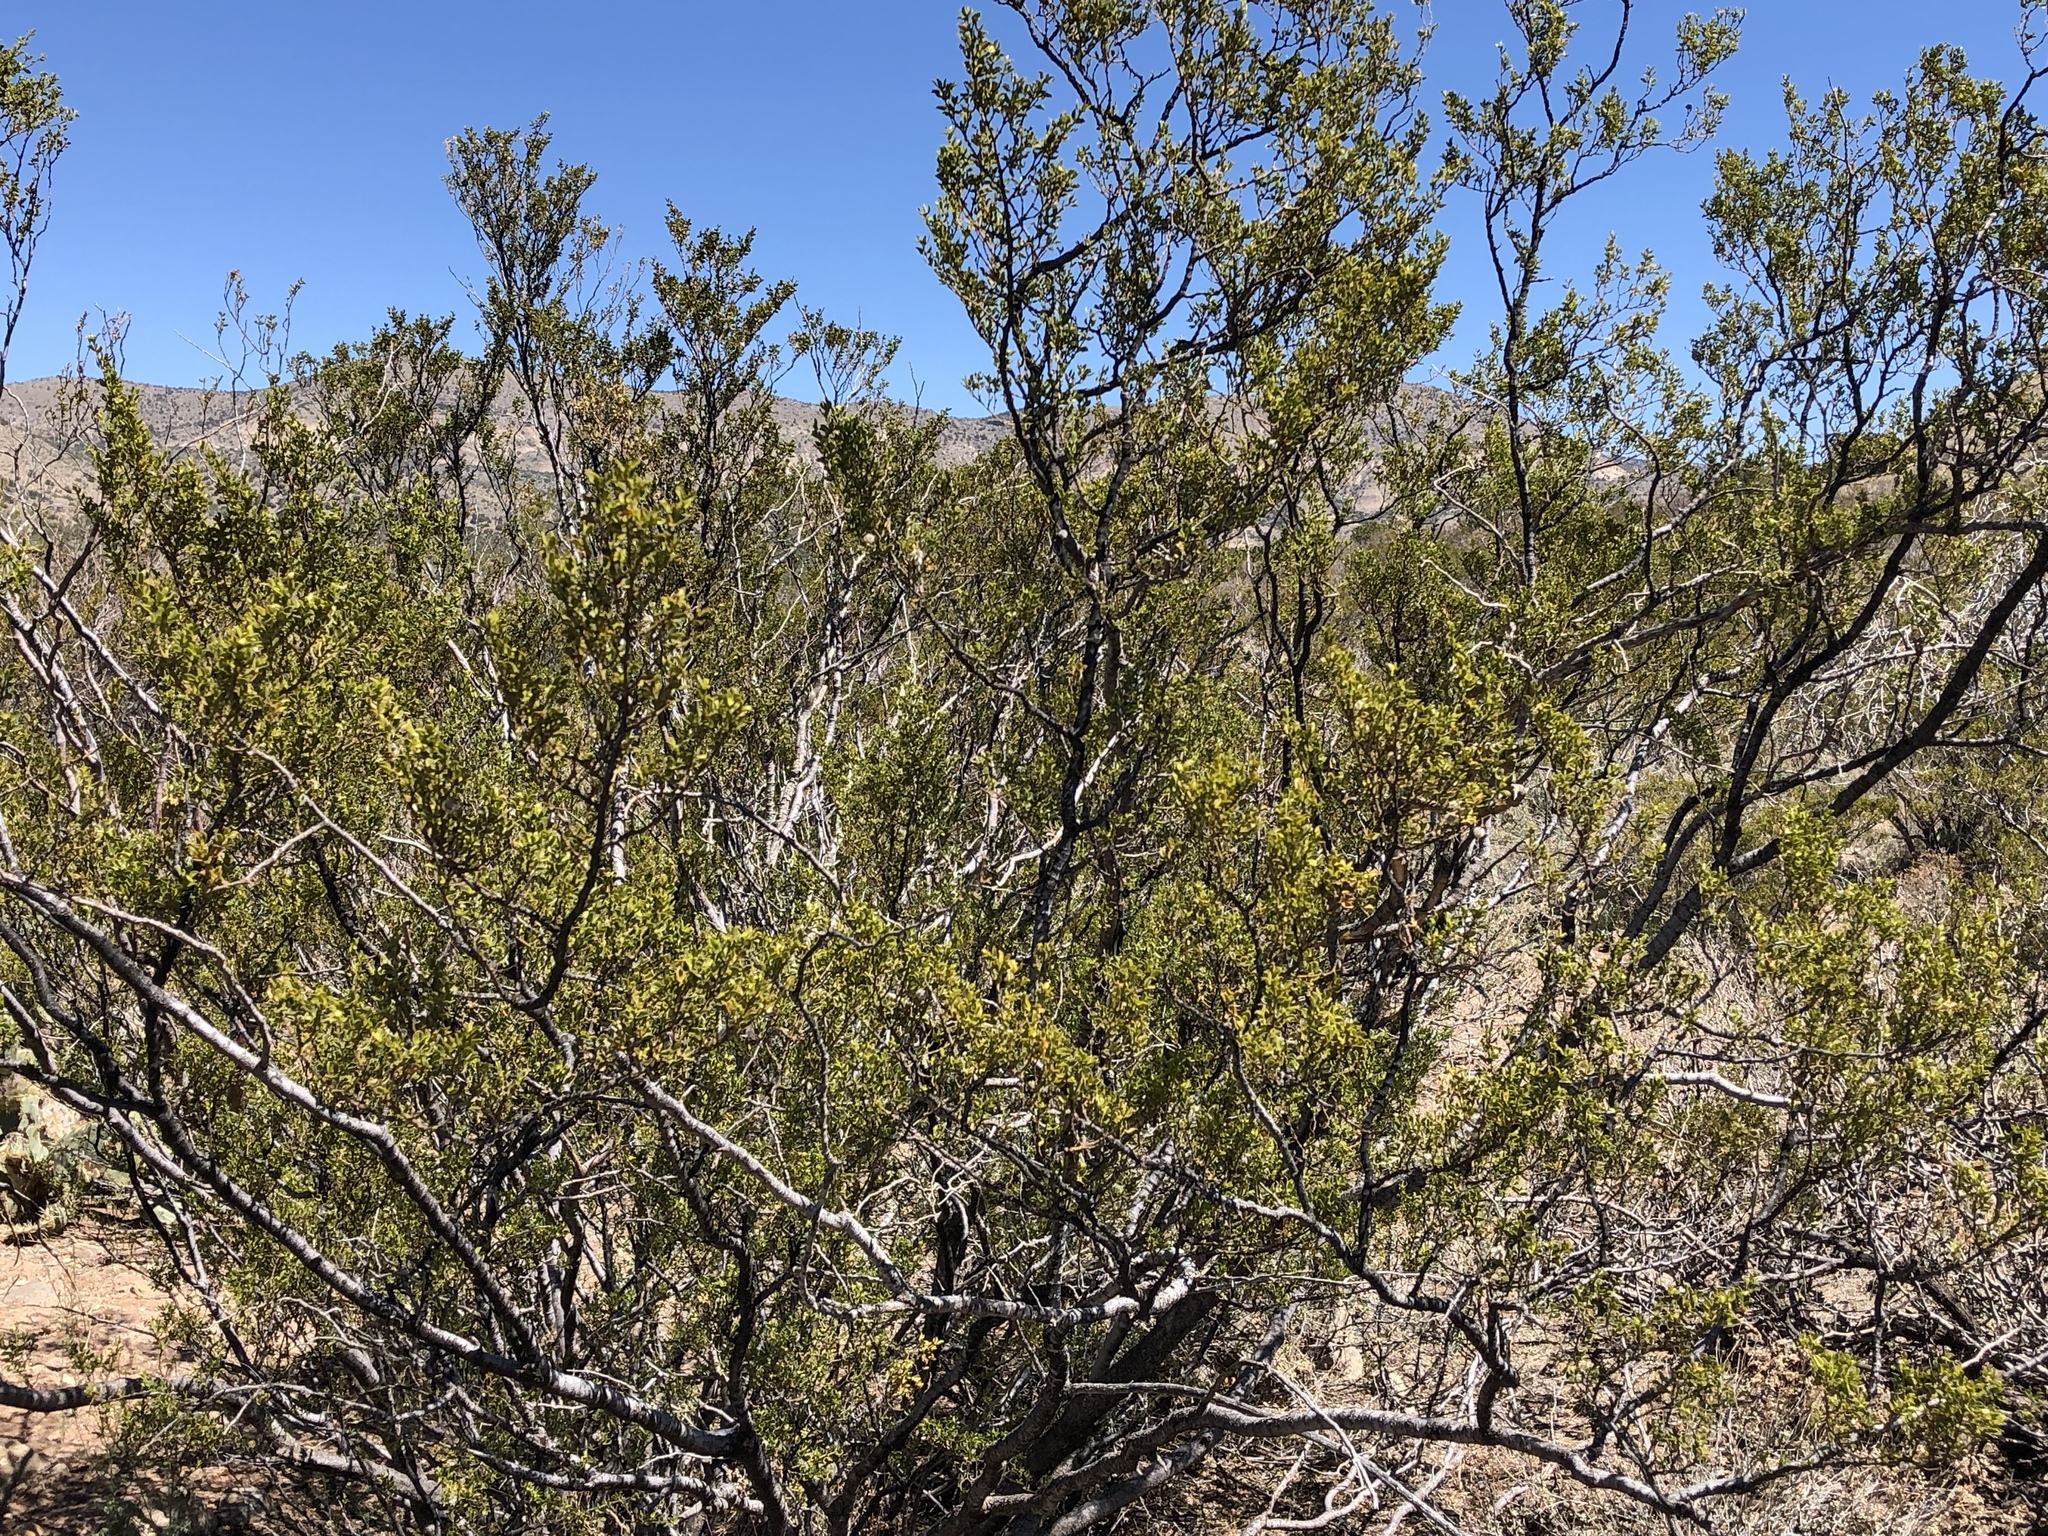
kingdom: Plantae
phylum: Tracheophyta
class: Magnoliopsida
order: Zygophyllales
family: Zygophyllaceae
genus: Larrea
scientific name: Larrea tridentata
